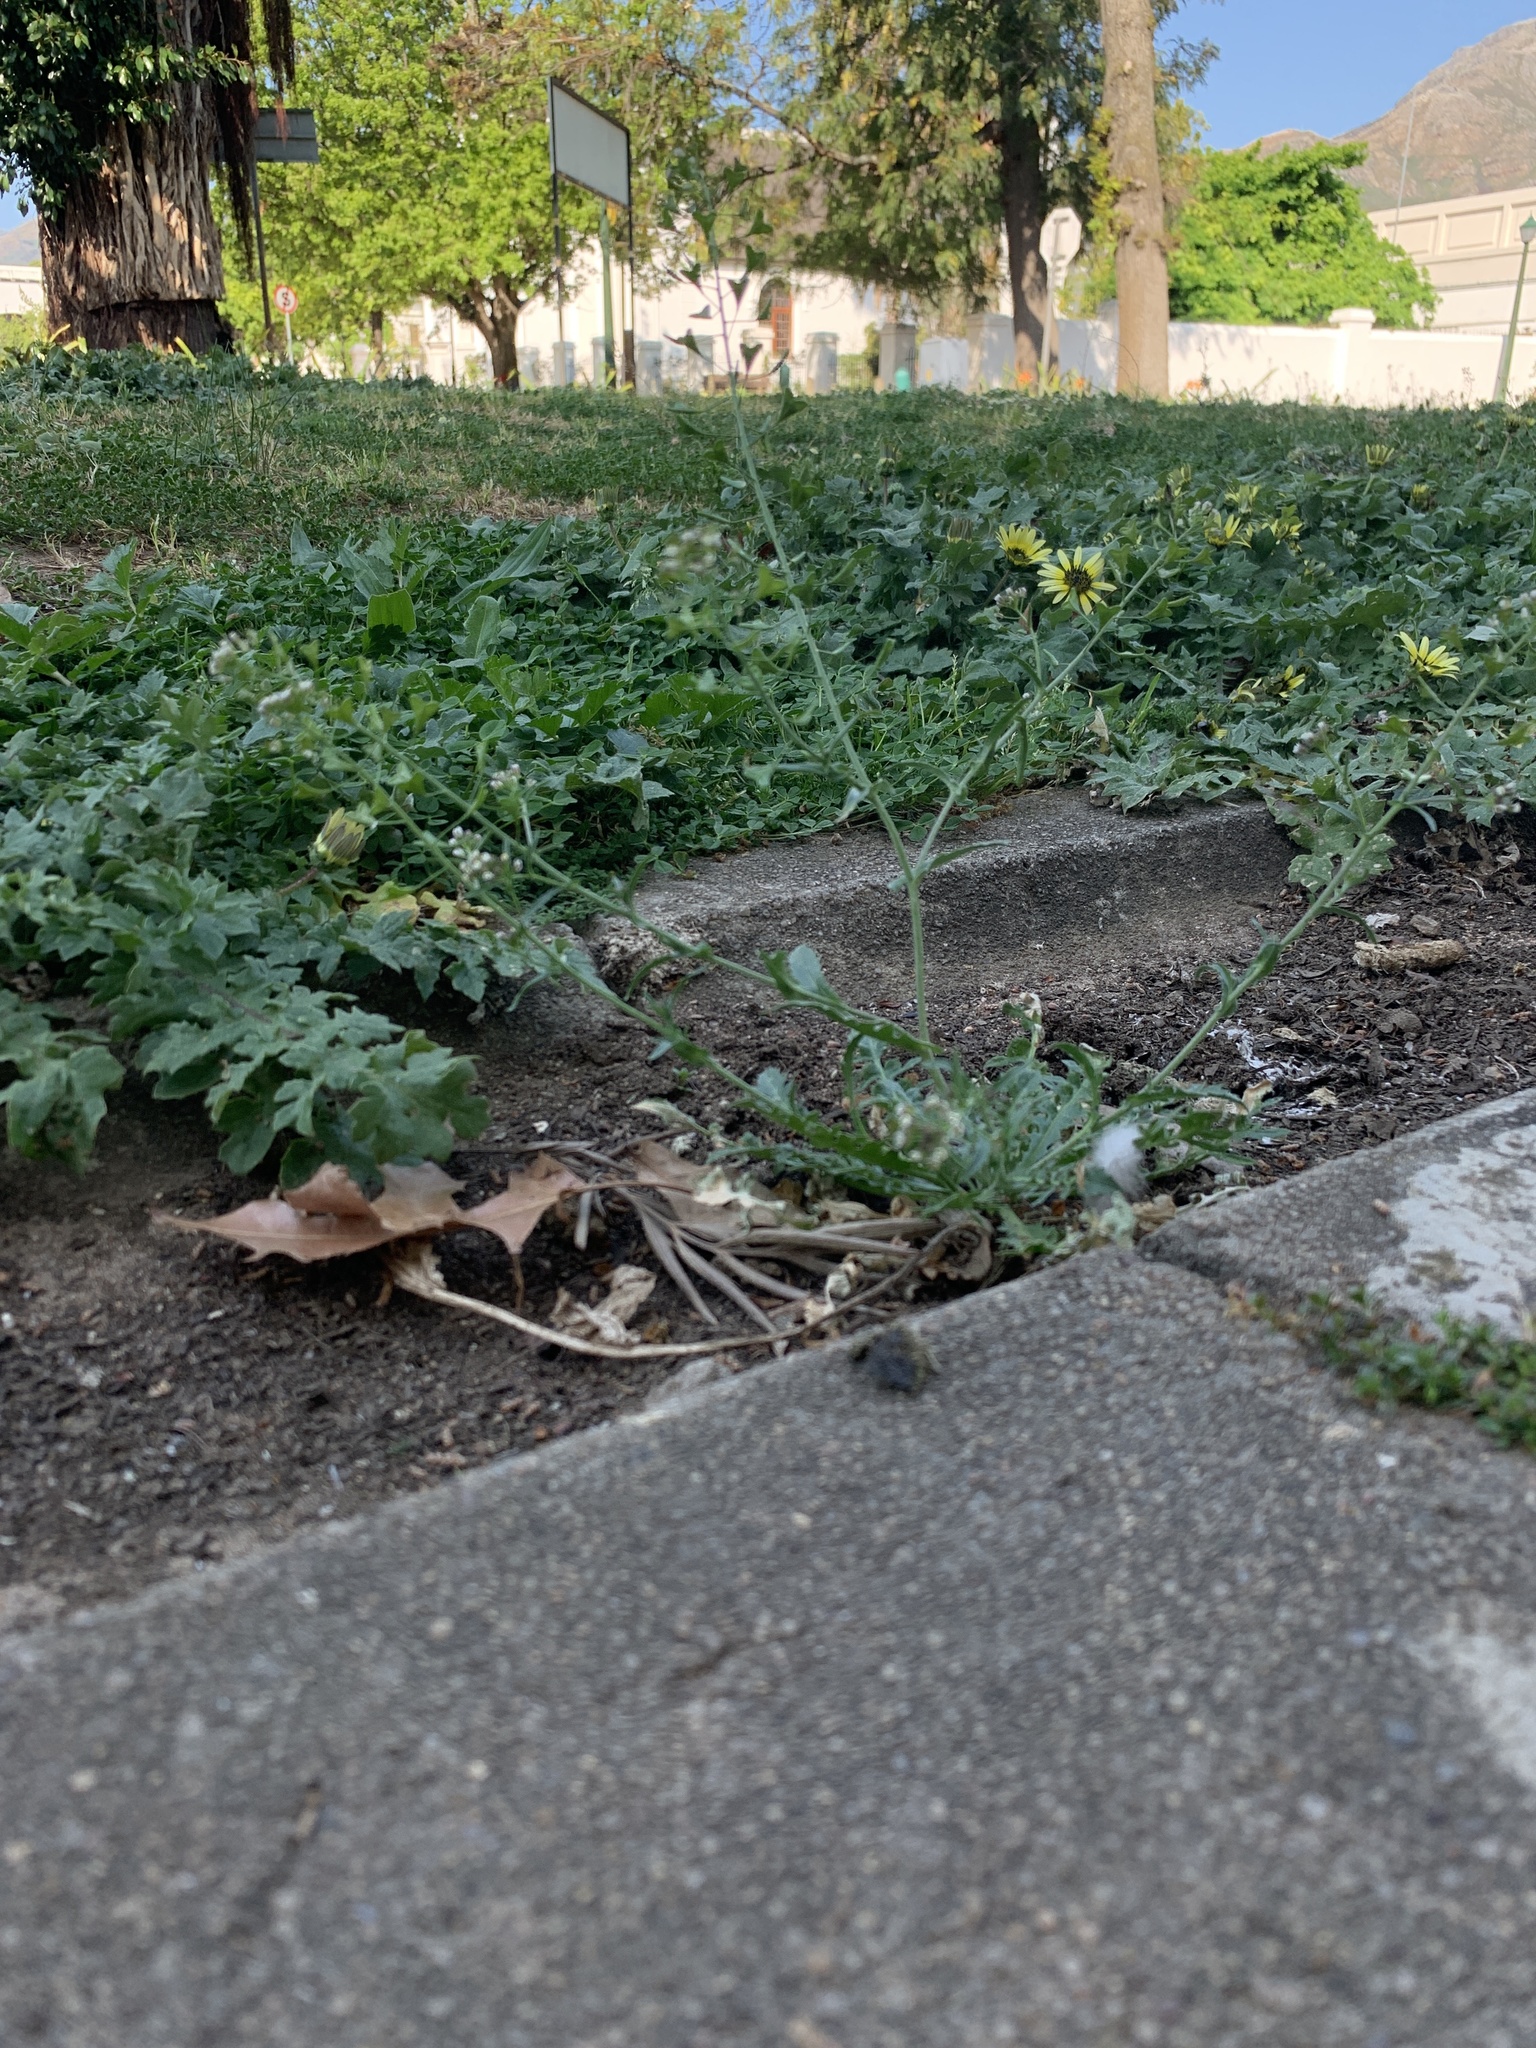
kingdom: Plantae
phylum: Tracheophyta
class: Magnoliopsida
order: Brassicales
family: Brassicaceae
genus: Capsella
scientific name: Capsella bursa-pastoris
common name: Shepherd's purse
